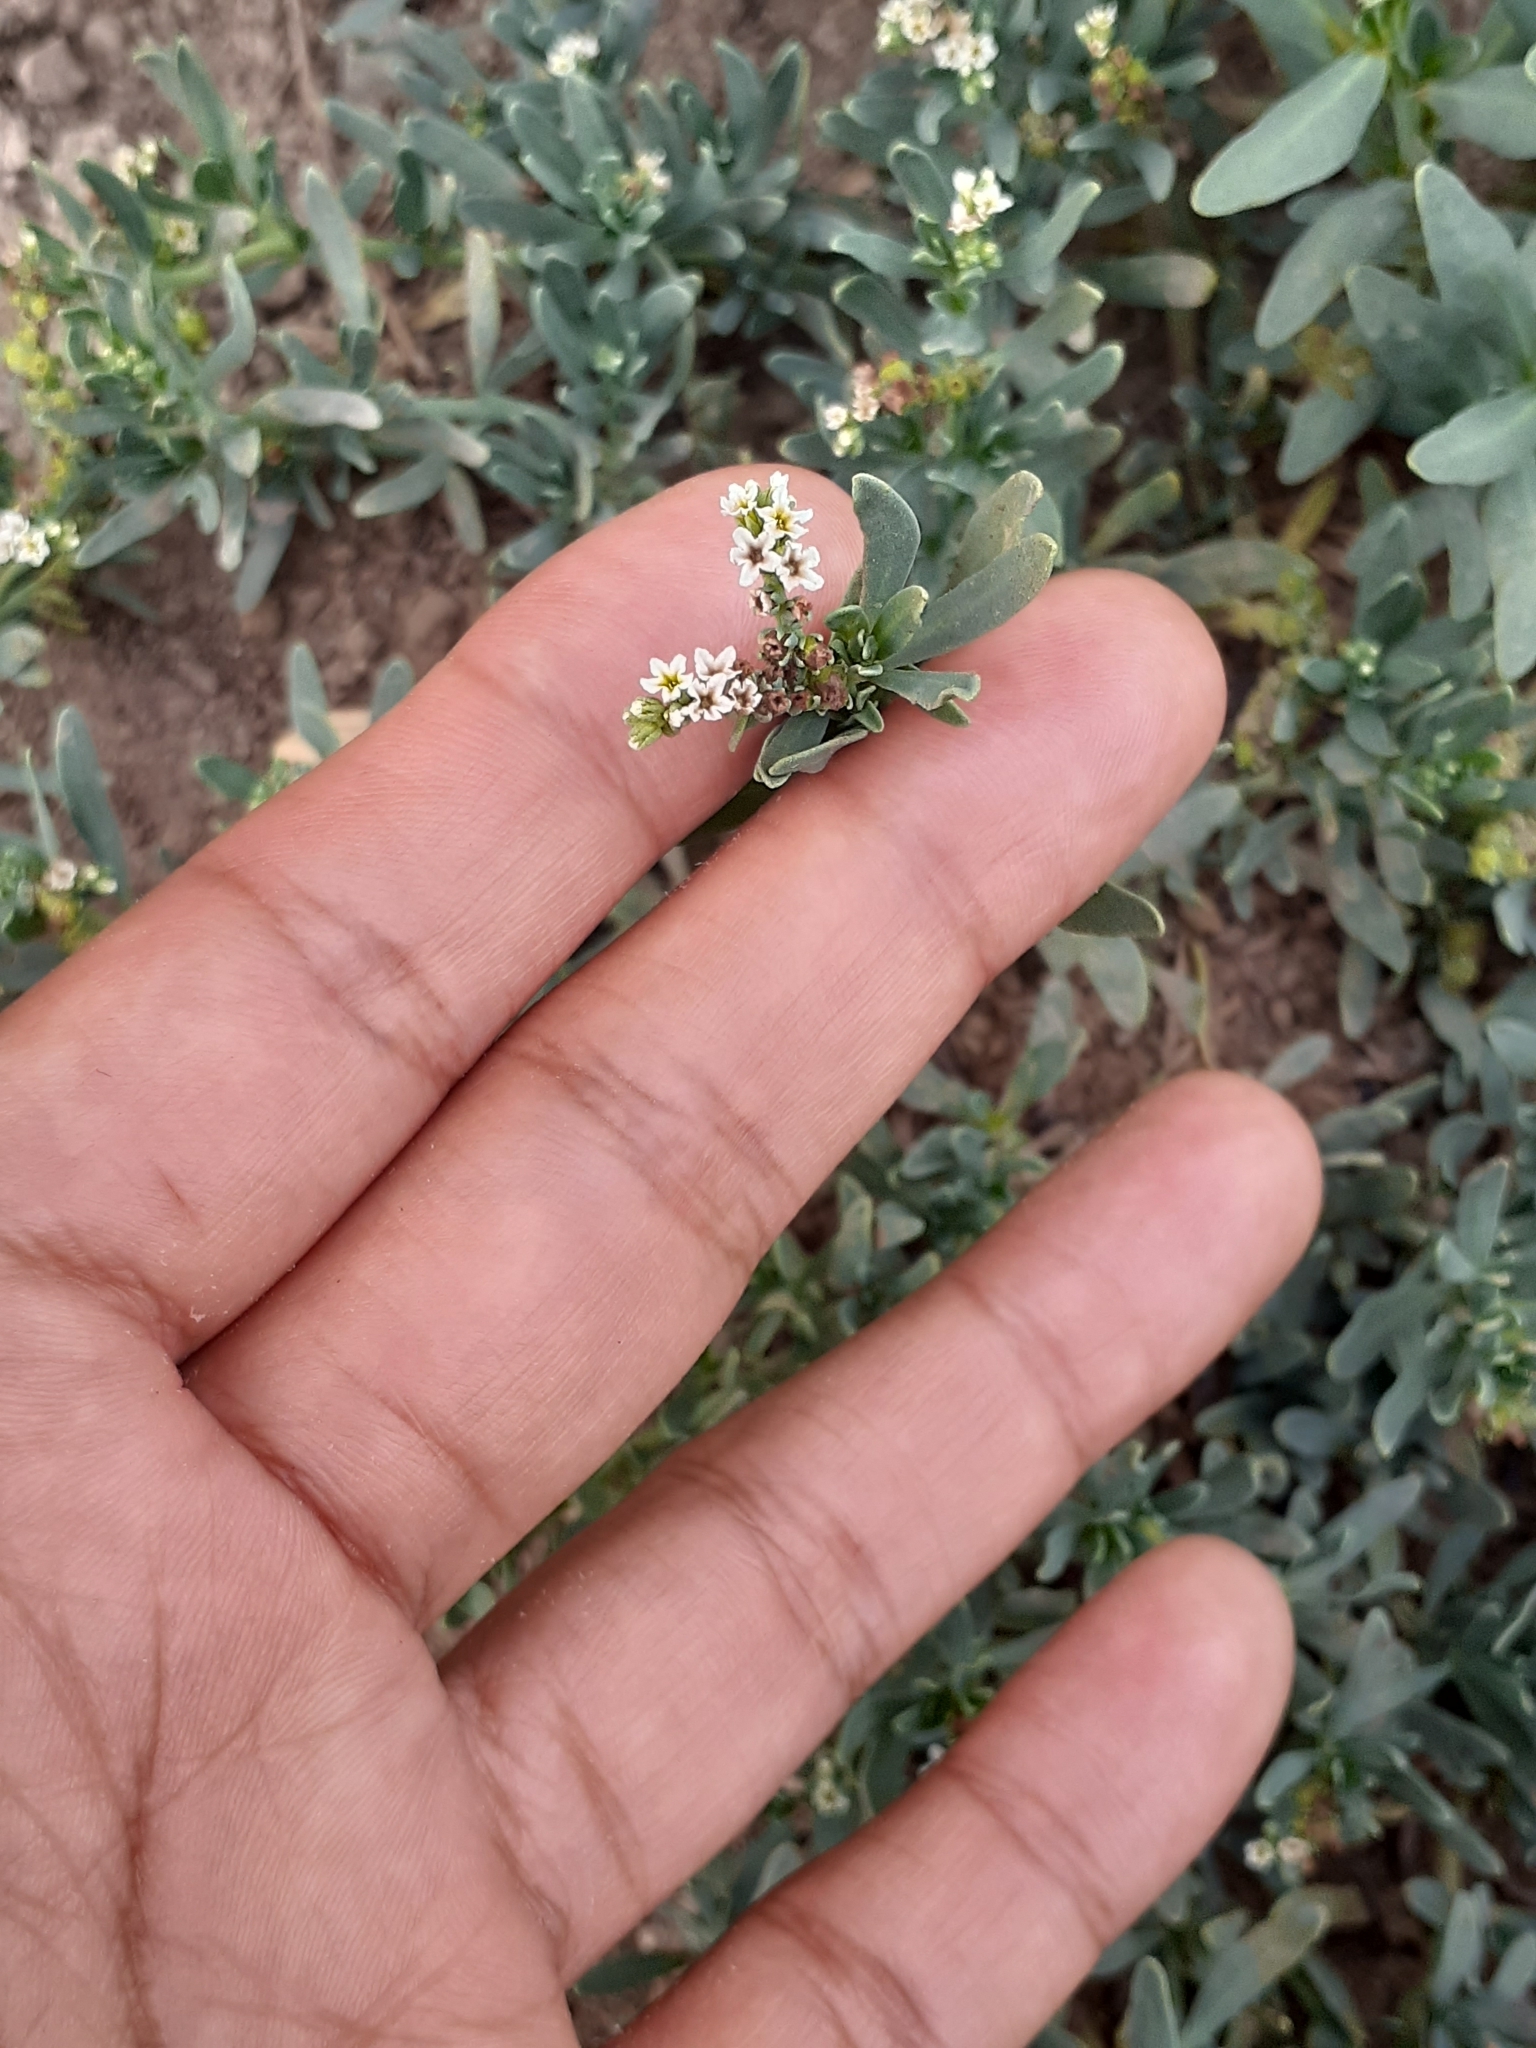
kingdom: Plantae
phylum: Tracheophyta
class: Magnoliopsida
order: Boraginales
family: Heliotropiaceae
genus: Heliotropium
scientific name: Heliotropium curassavicum
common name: Seaside heliotrope
